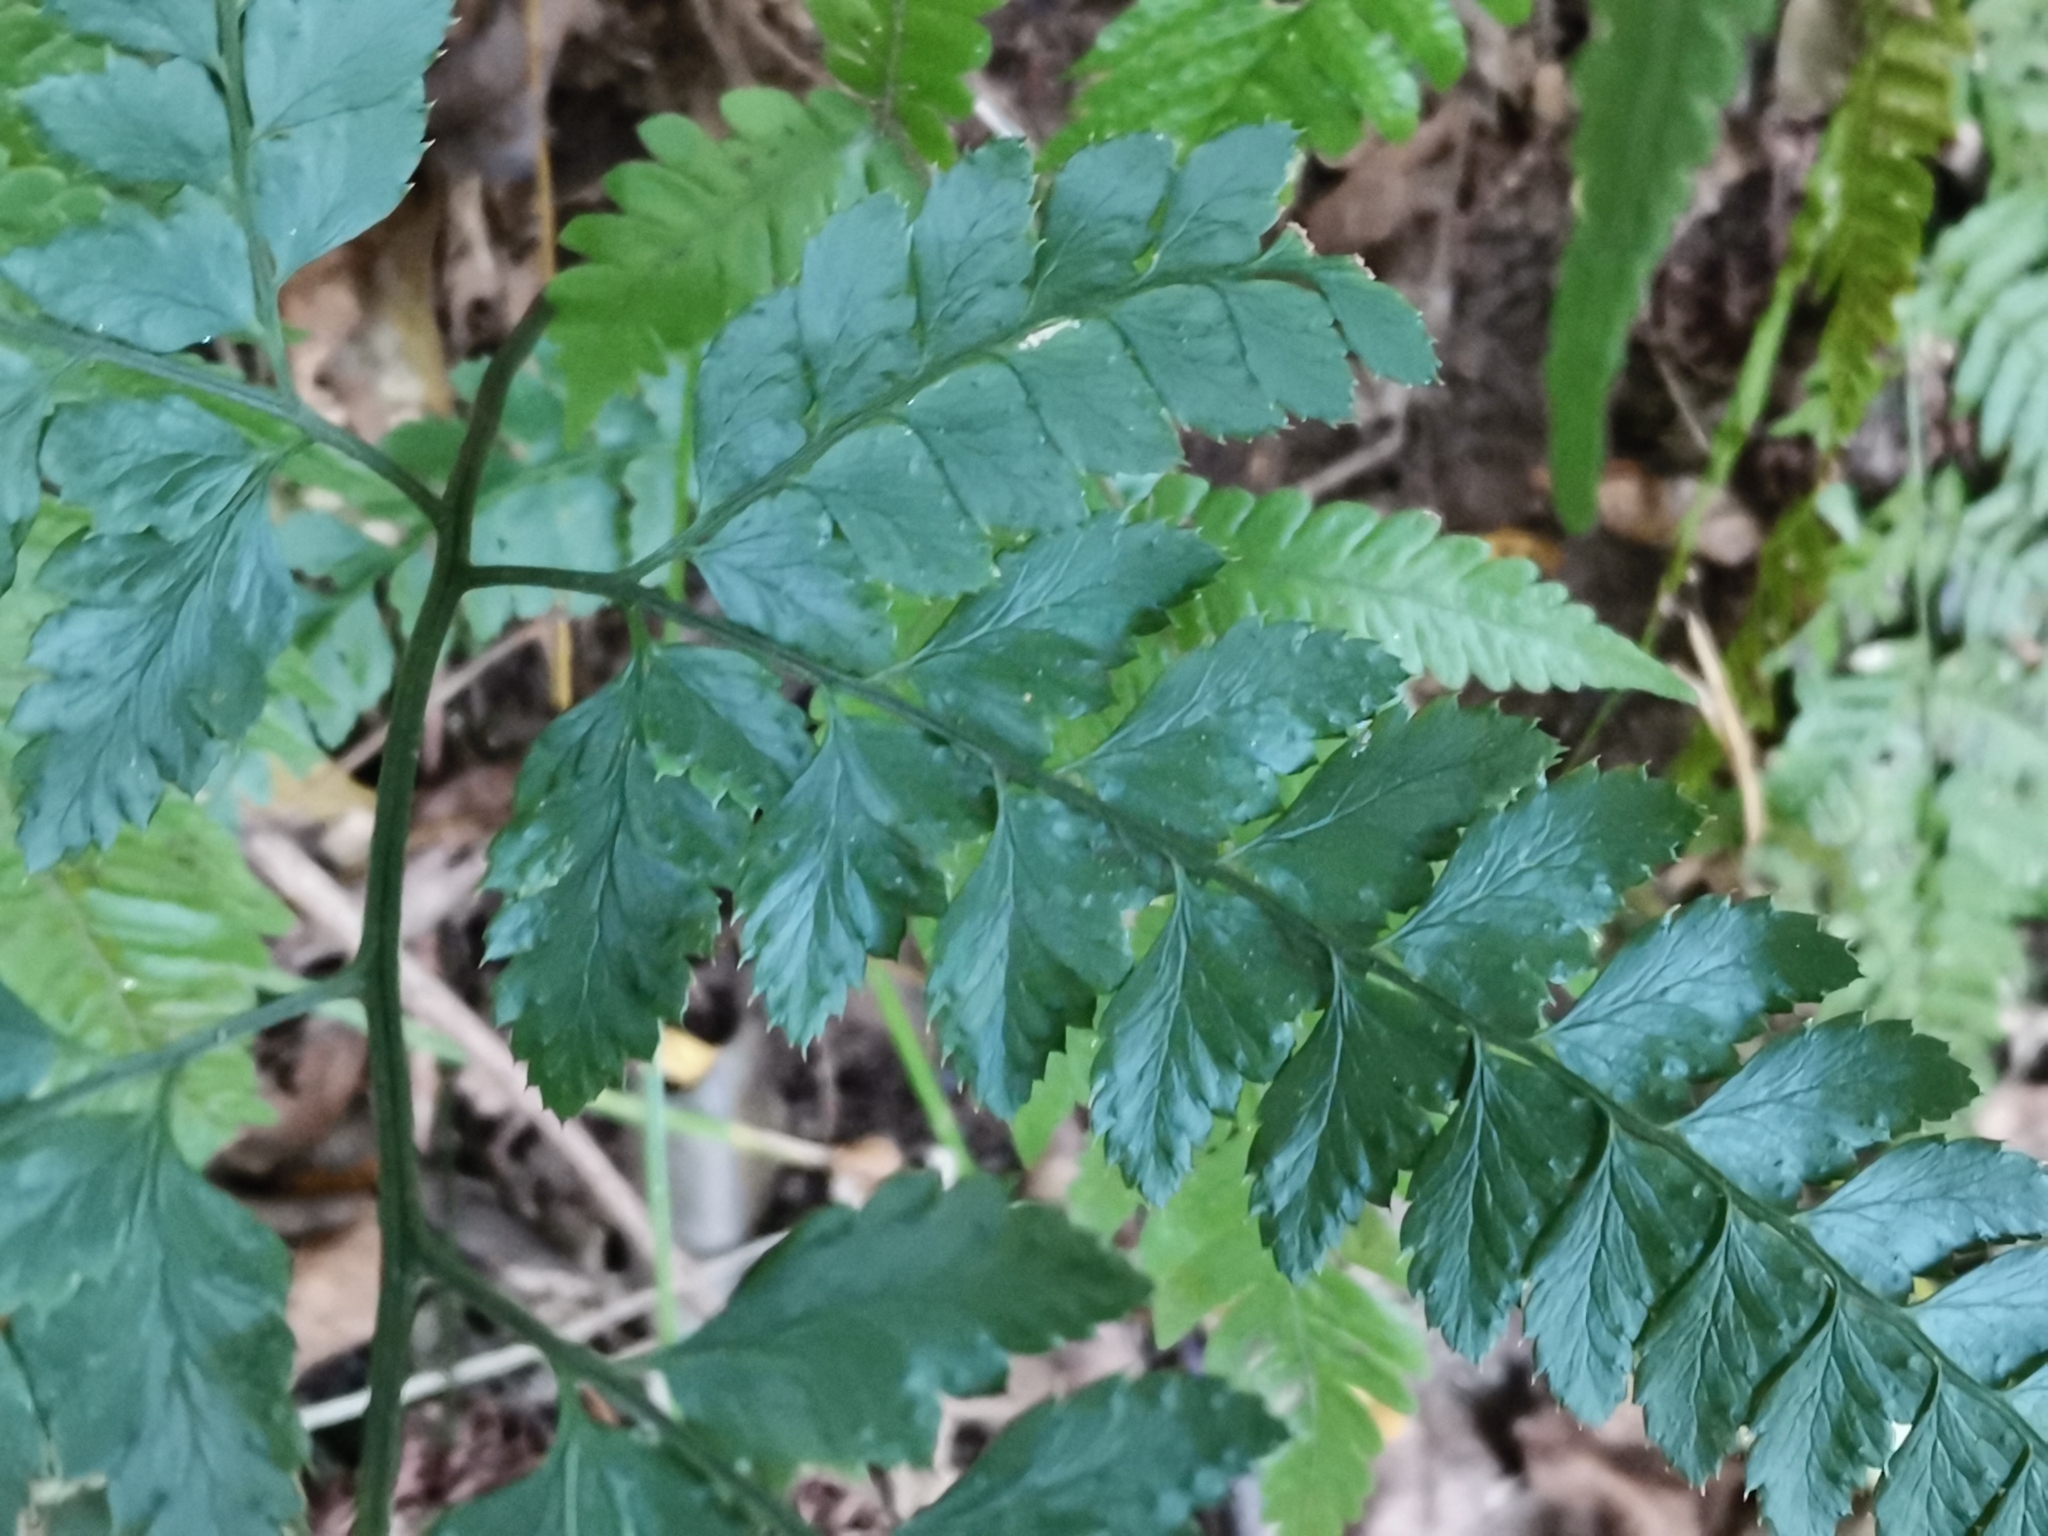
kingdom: Plantae
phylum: Tracheophyta
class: Polypodiopsida
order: Polypodiales
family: Dryopteridaceae
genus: Arachniodes
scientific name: Arachniodes rhomboidea
